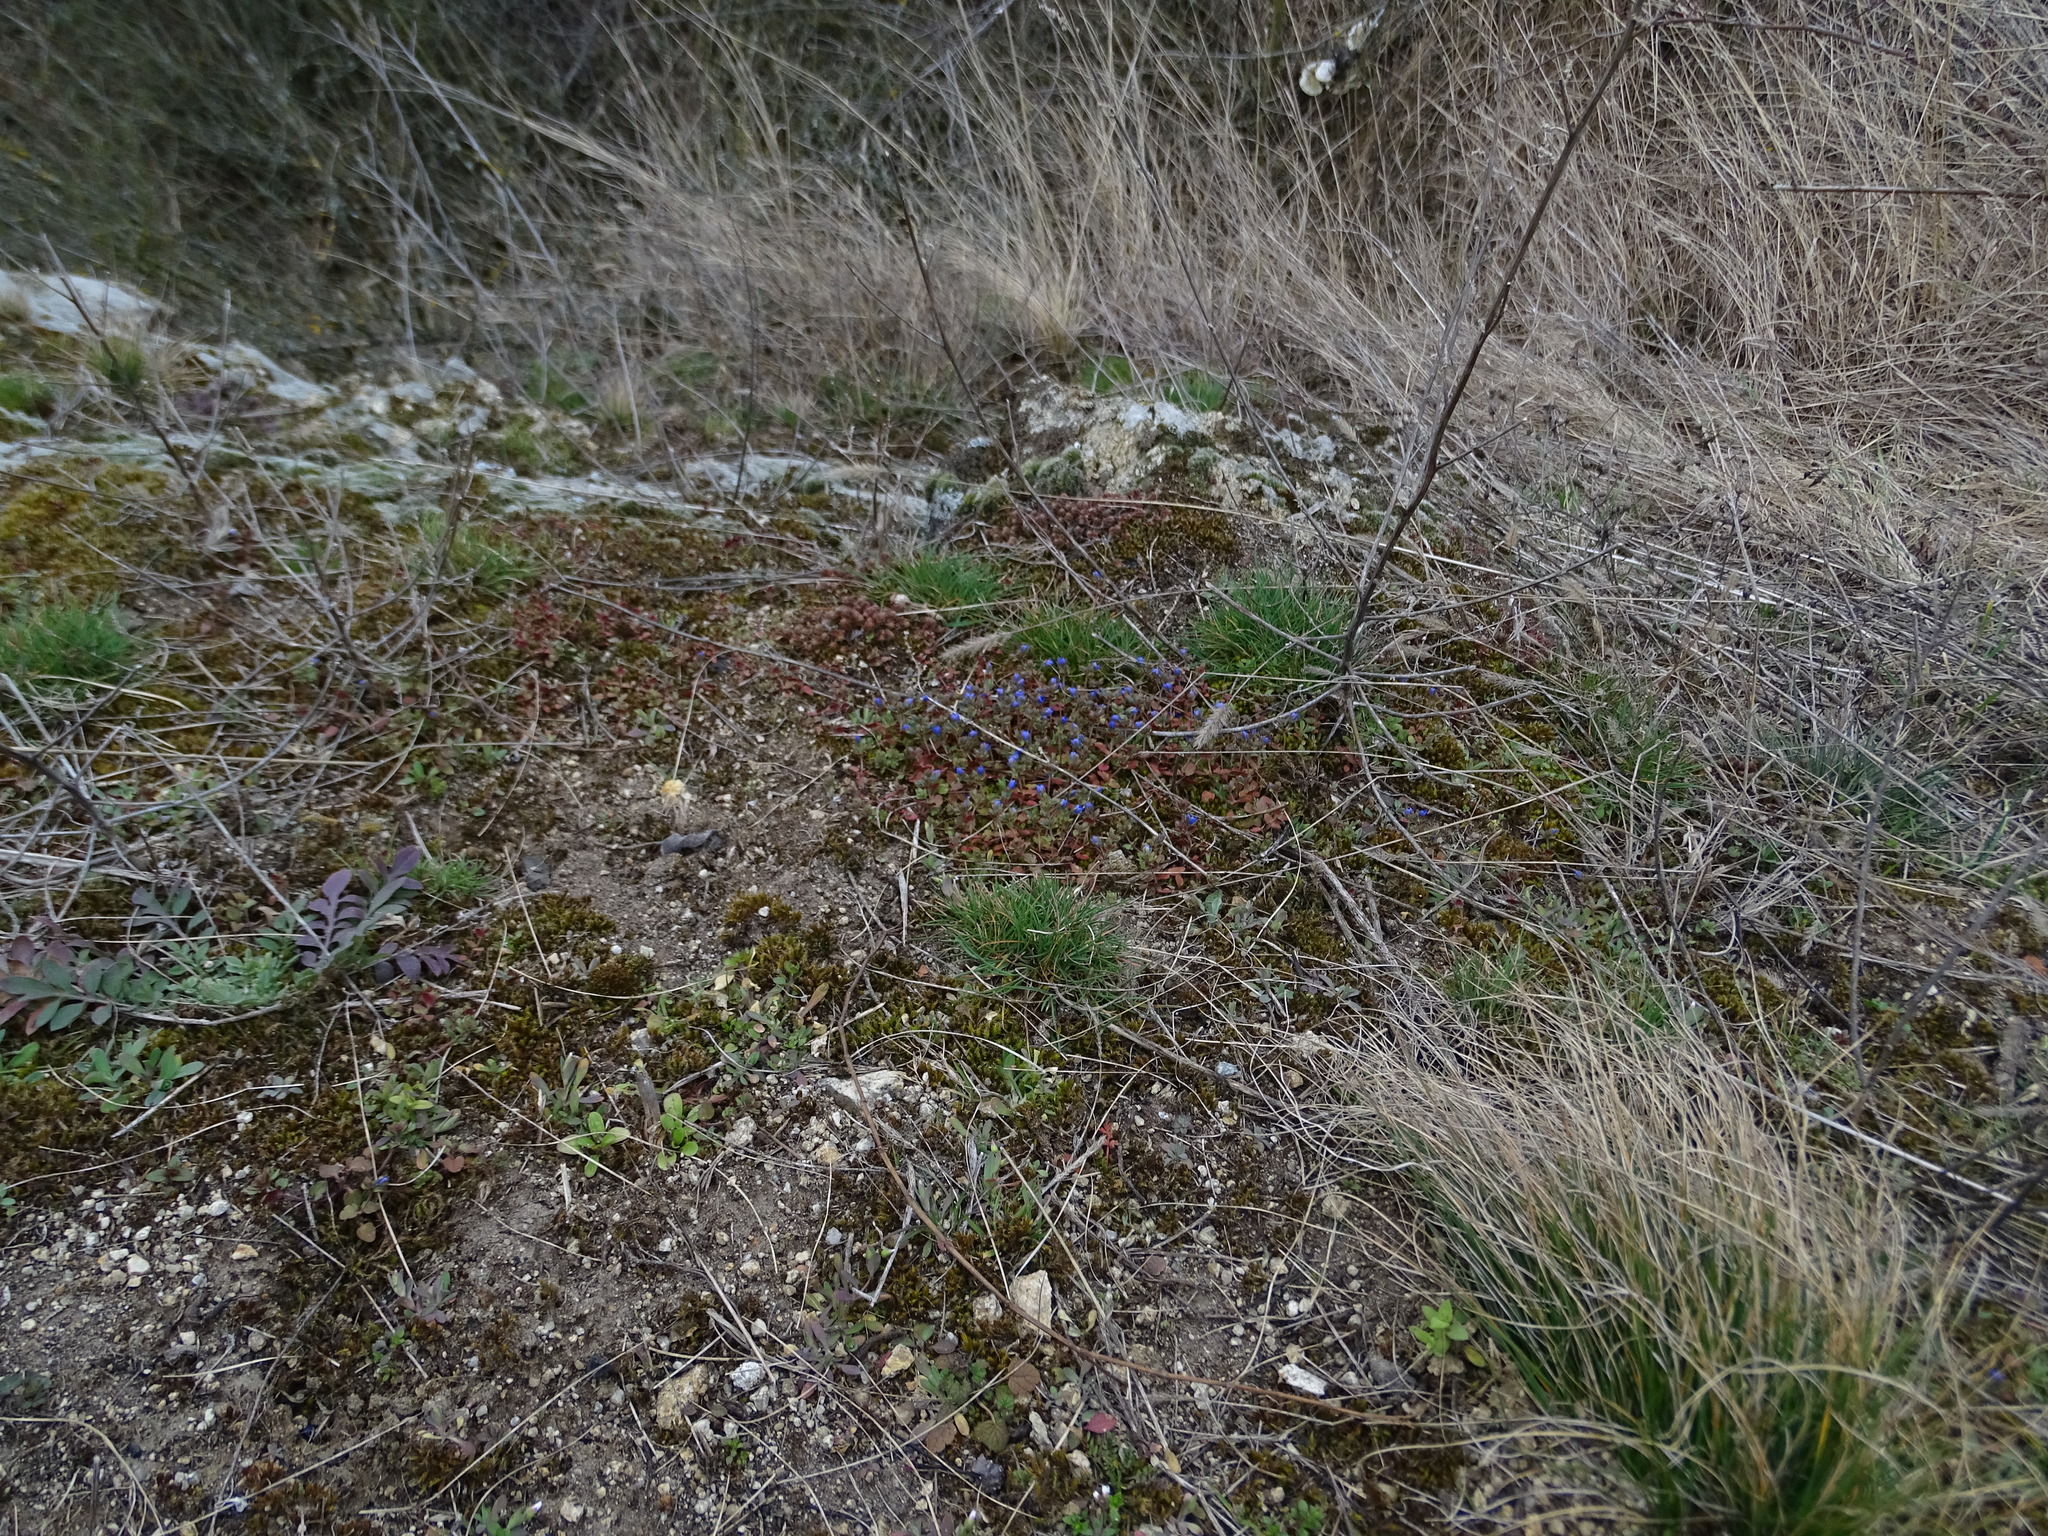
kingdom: Plantae
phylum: Tracheophyta
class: Magnoliopsida
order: Lamiales
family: Plantaginaceae
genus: Veronica
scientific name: Veronica triphyllos
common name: Fingered speedwell
